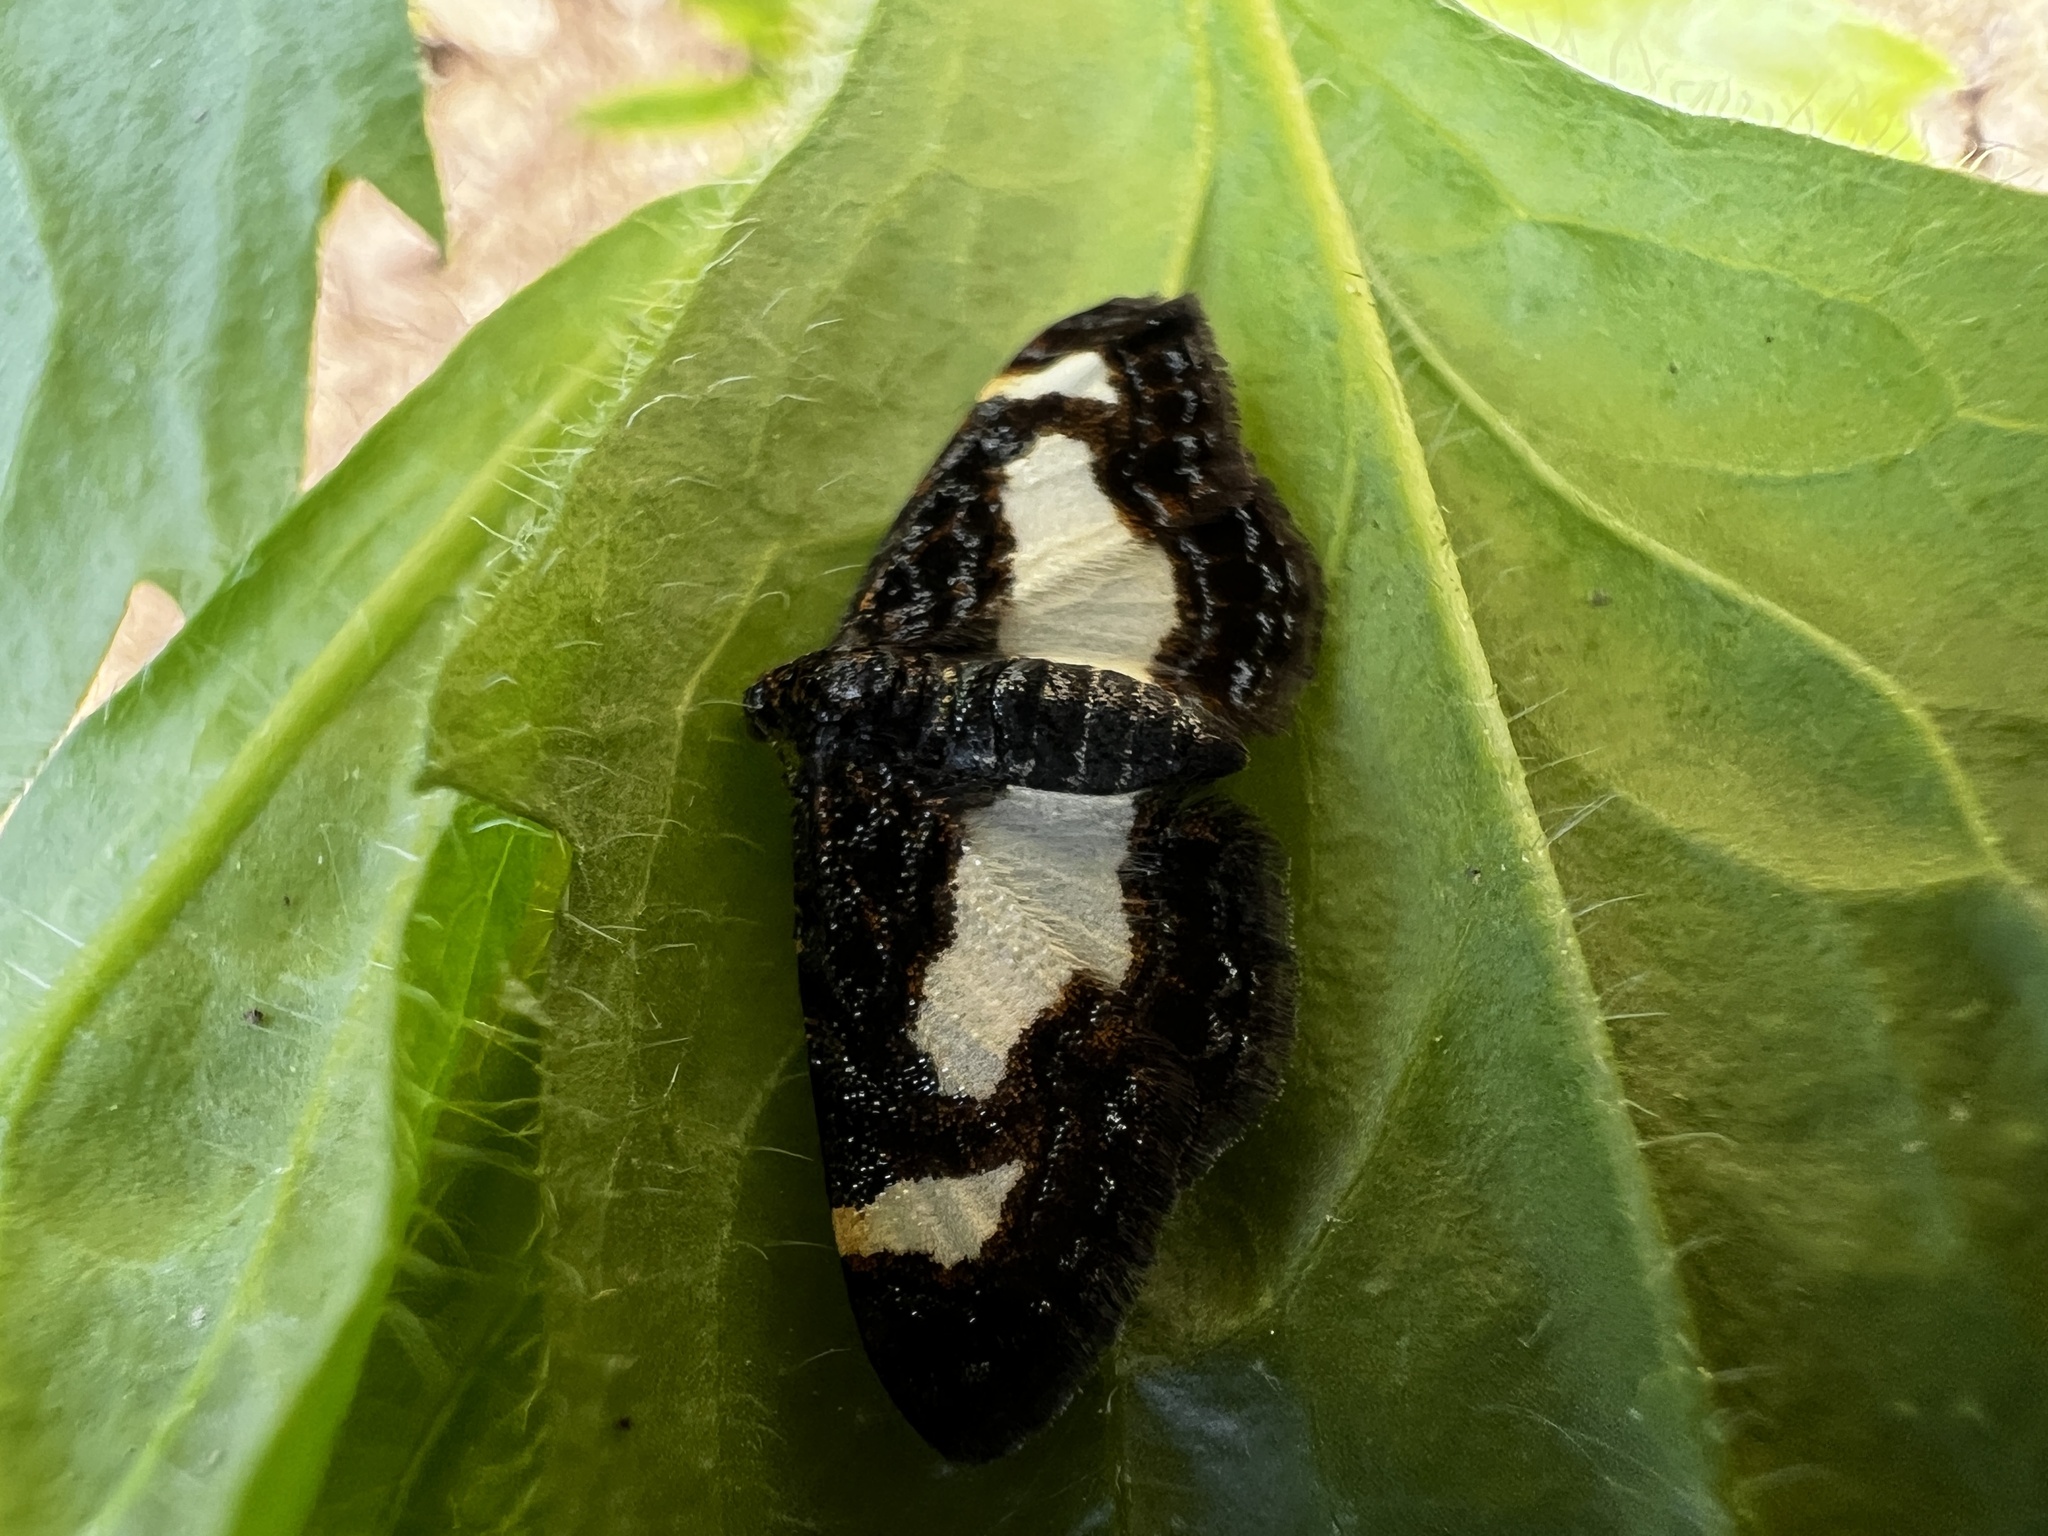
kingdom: Animalia
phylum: Arthropoda
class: Insecta
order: Lepidoptera
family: Geometridae
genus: Heliomata
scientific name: Heliomata cycladata
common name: Common spring moth
